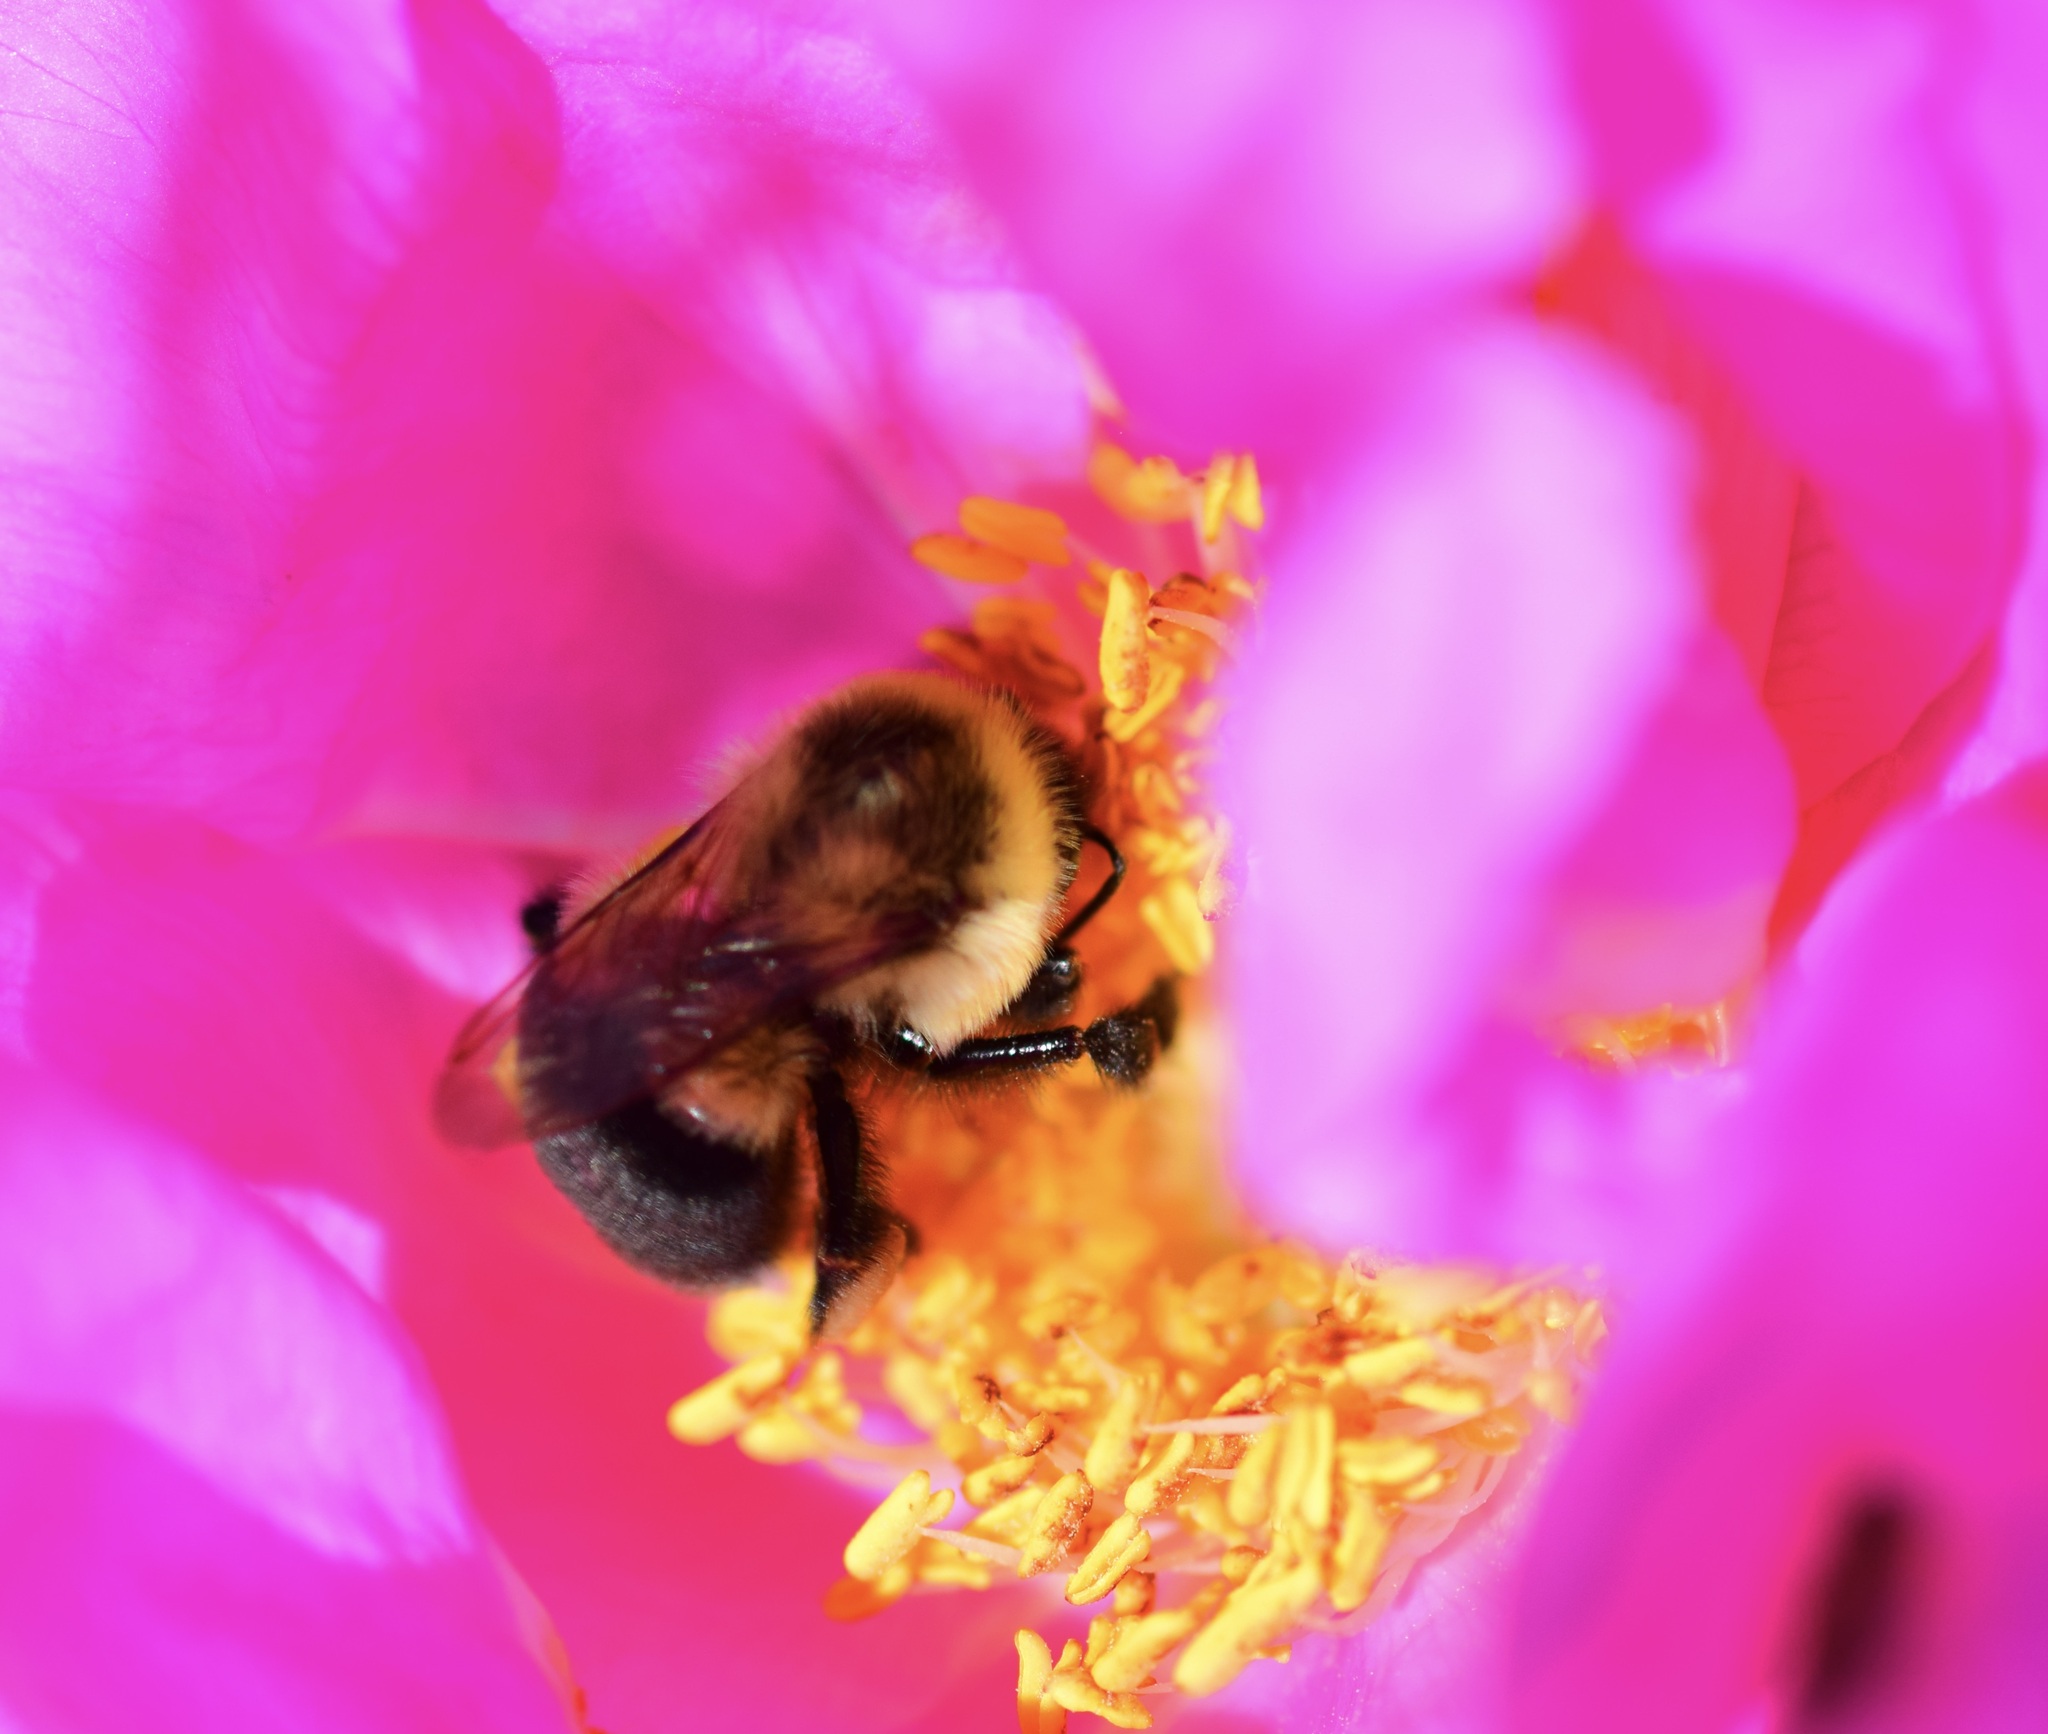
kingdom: Animalia
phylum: Arthropoda
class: Insecta
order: Hymenoptera
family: Apidae
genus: Bombus
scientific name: Bombus impatiens
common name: Common eastern bumble bee
